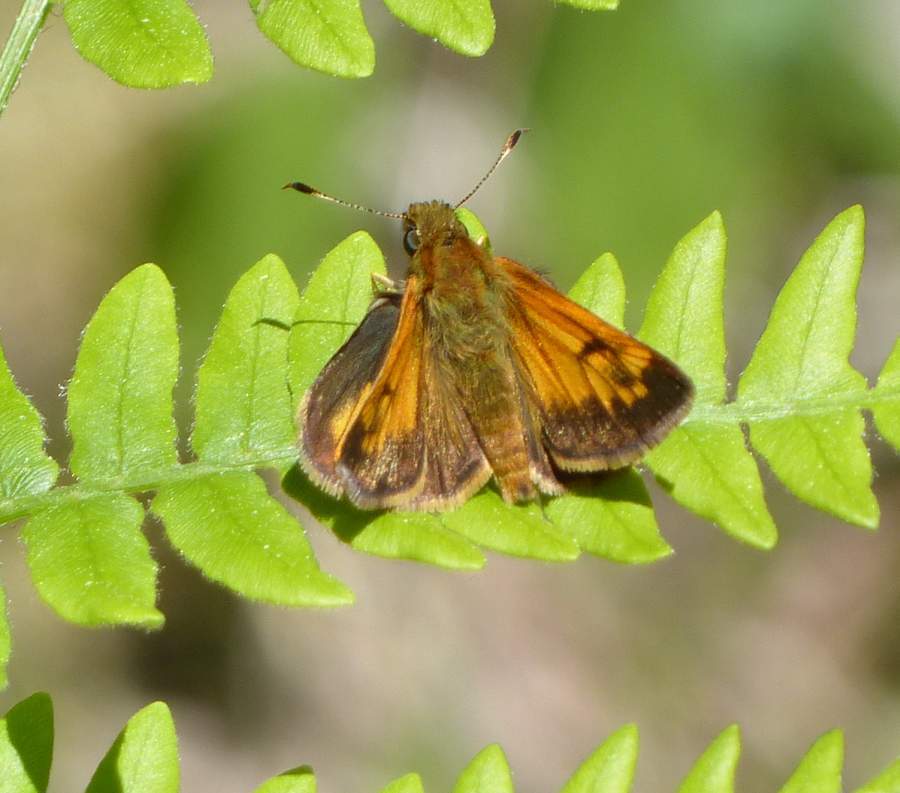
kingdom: Animalia
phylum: Arthropoda
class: Insecta
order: Lepidoptera
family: Hesperiidae
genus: Lon
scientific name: Lon hobomok
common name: Hobomok skipper
